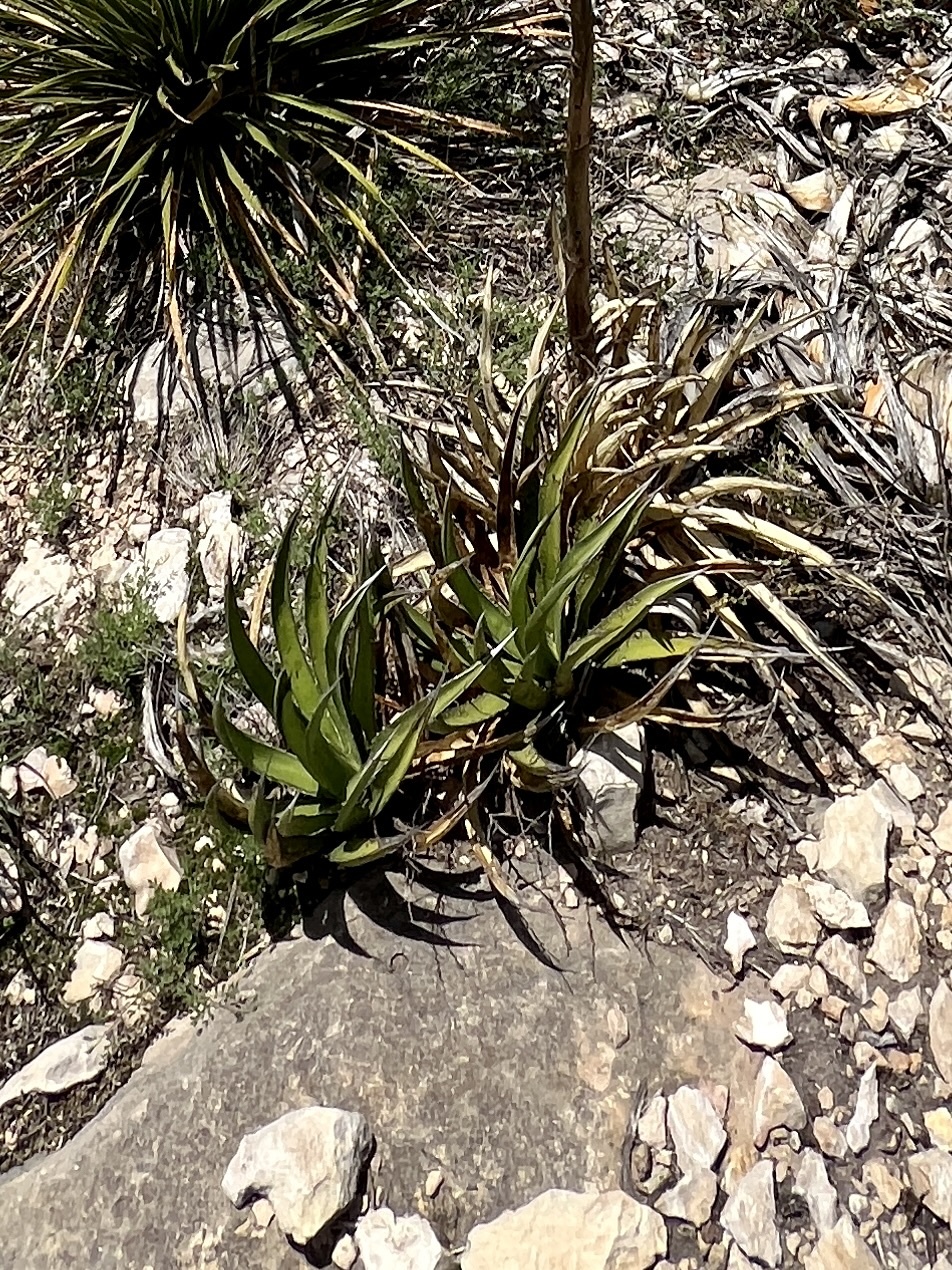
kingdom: Plantae
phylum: Tracheophyta
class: Liliopsida
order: Asparagales
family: Asparagaceae
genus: Agave
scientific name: Agave lechuguilla
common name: Lecheguilla agave
